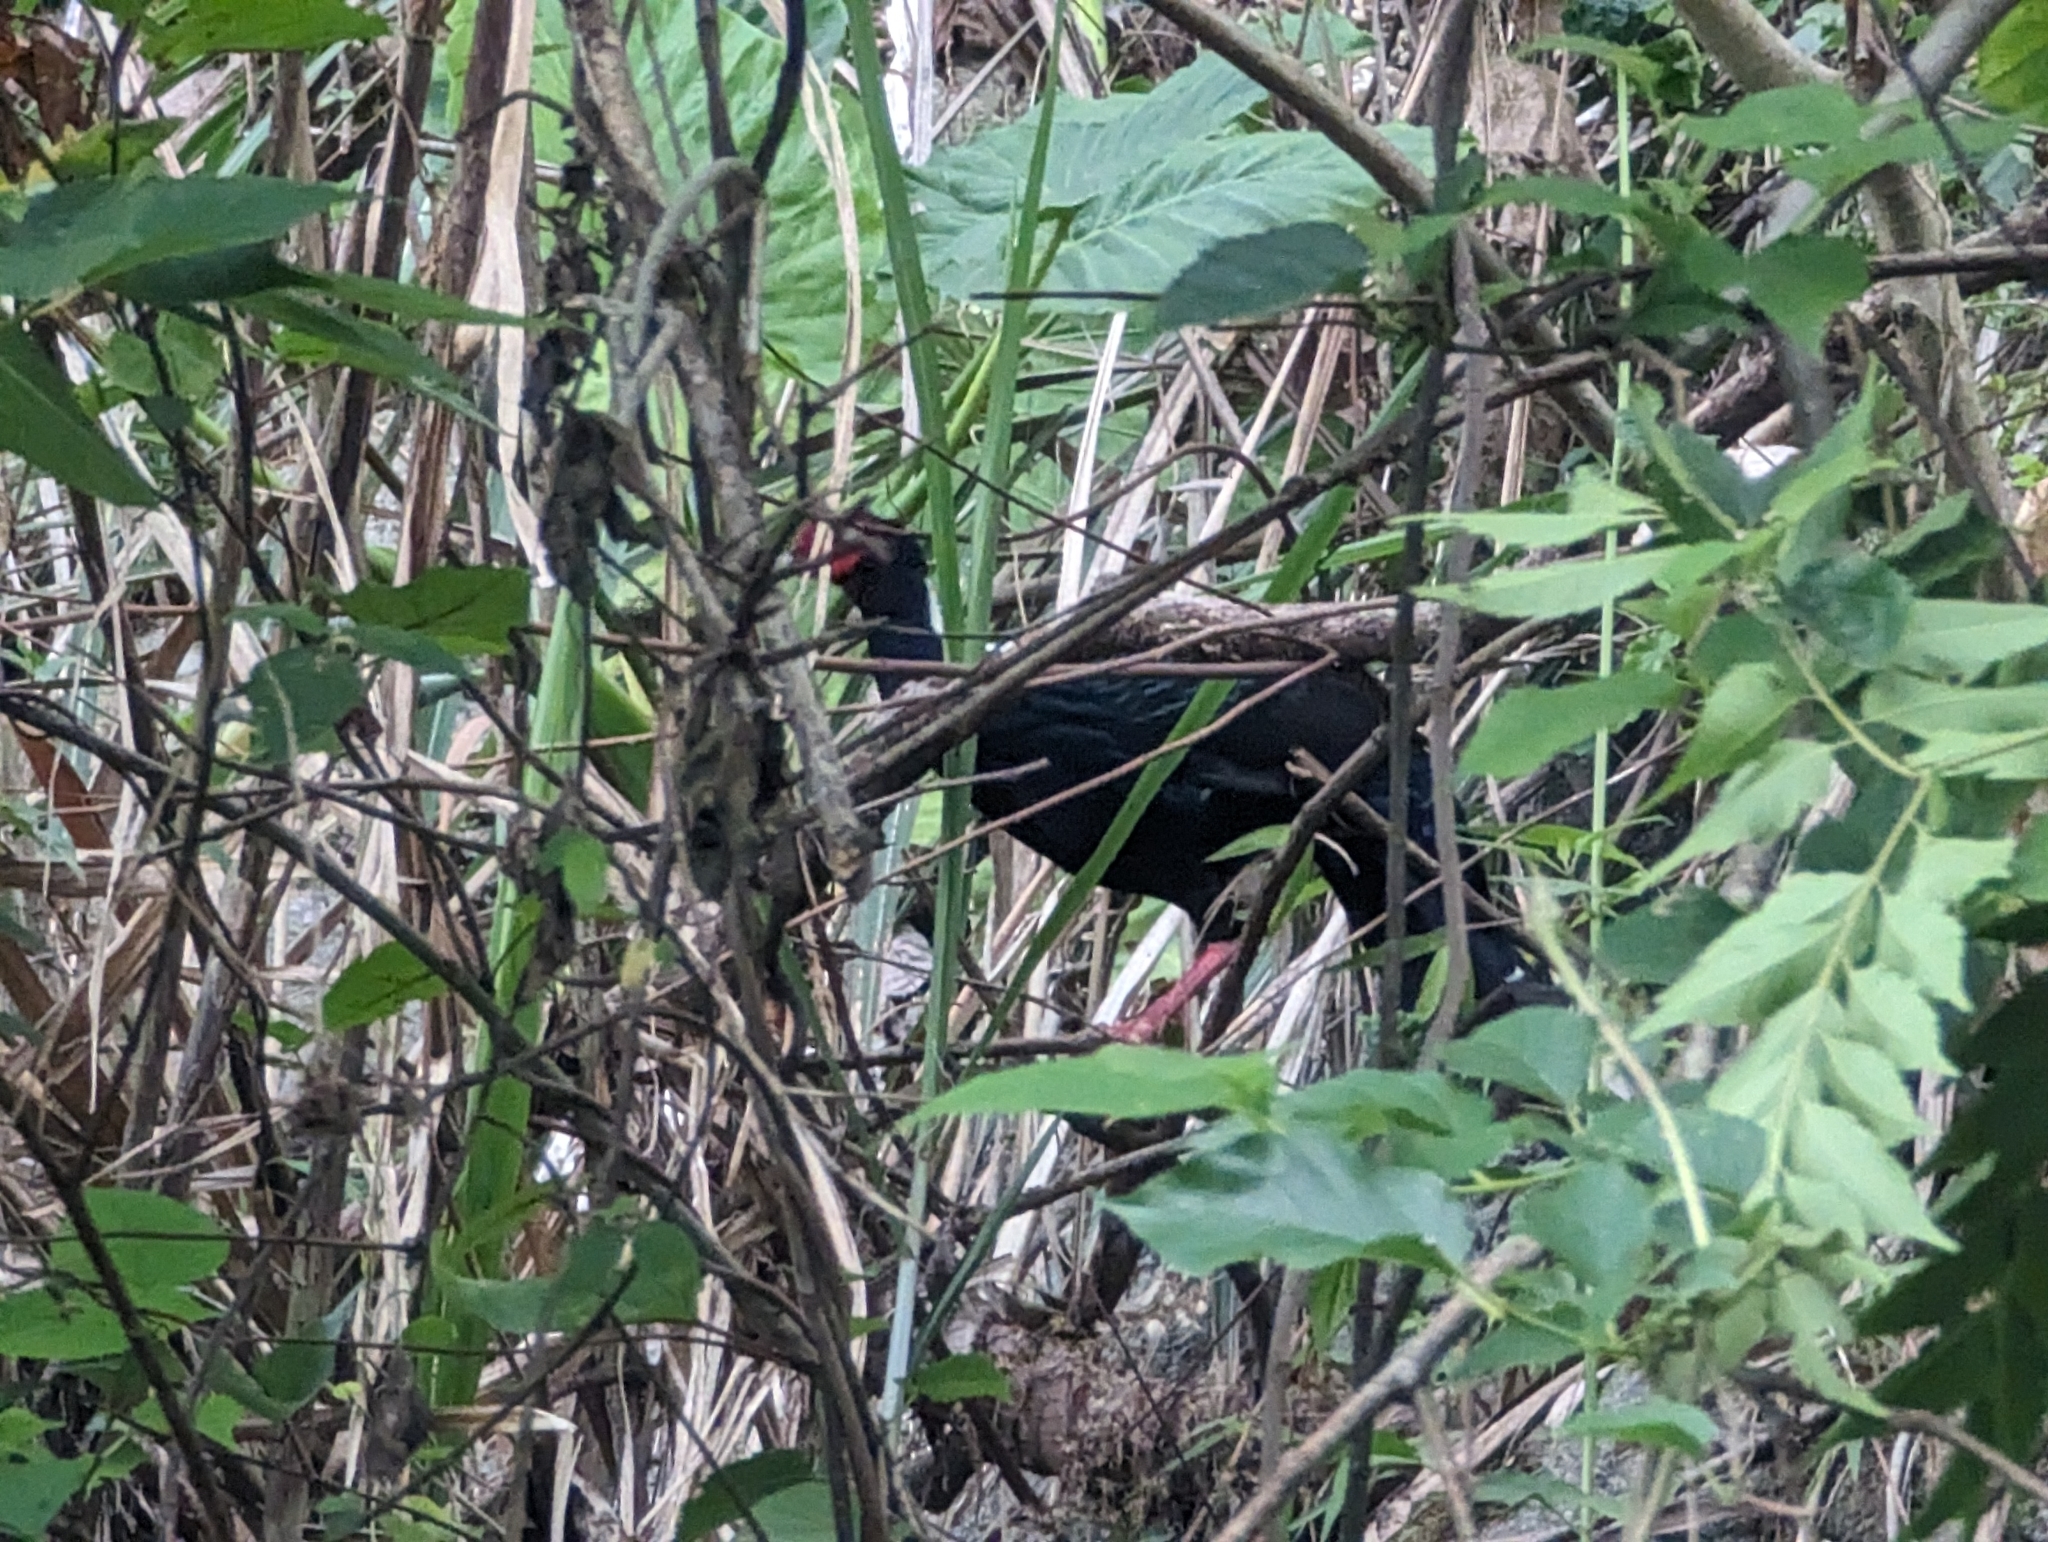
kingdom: Animalia
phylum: Chordata
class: Aves
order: Galliformes
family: Phasianidae
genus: Lophura
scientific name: Lophura swinhoii
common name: Swinhoe's pheasant
